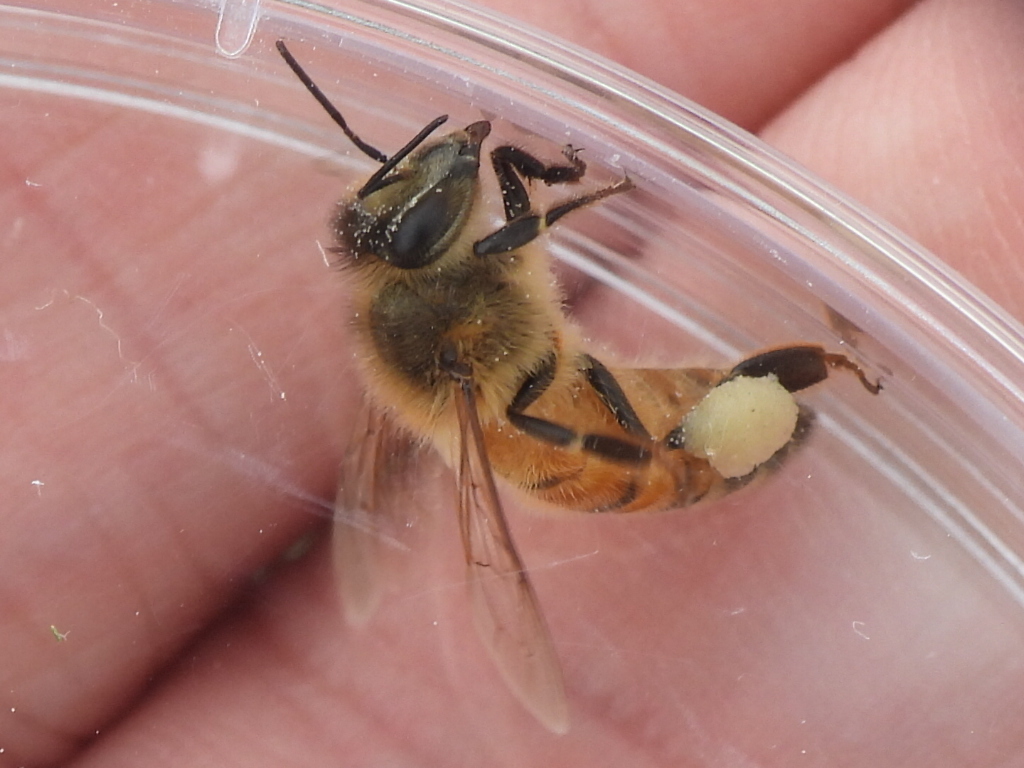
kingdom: Animalia
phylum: Arthropoda
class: Insecta
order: Hymenoptera
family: Apidae
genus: Apis
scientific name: Apis mellifera
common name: Honey bee
